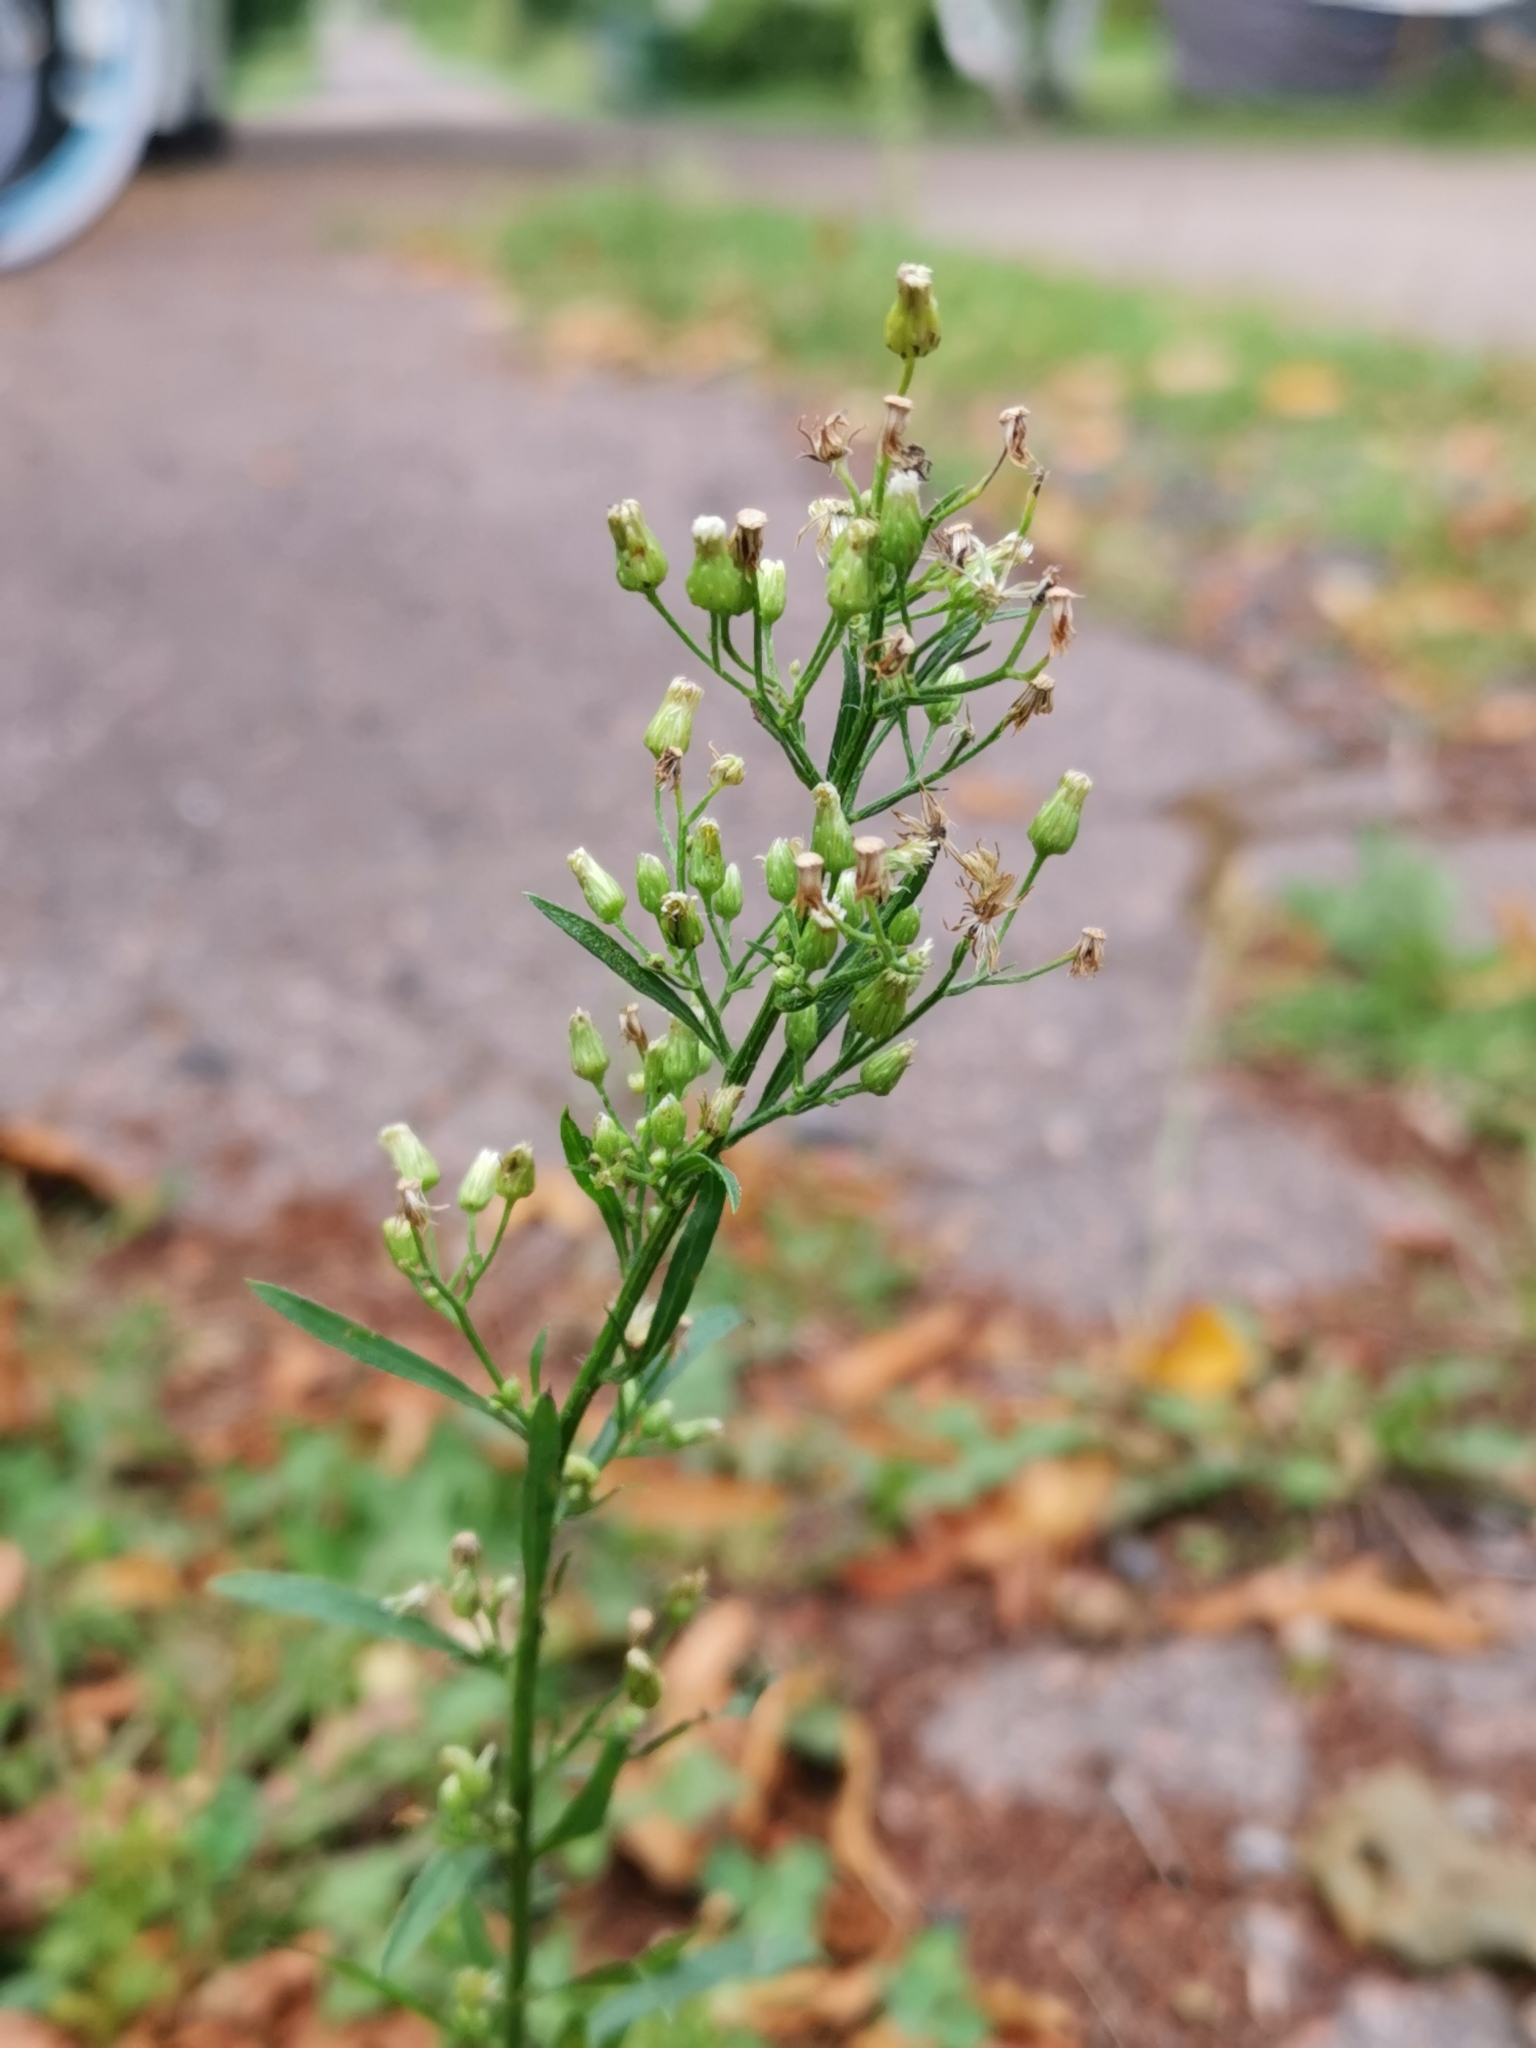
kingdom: Plantae
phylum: Tracheophyta
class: Magnoliopsida
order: Asterales
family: Asteraceae
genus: Erigeron
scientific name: Erigeron canadensis
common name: Canadian fleabane
